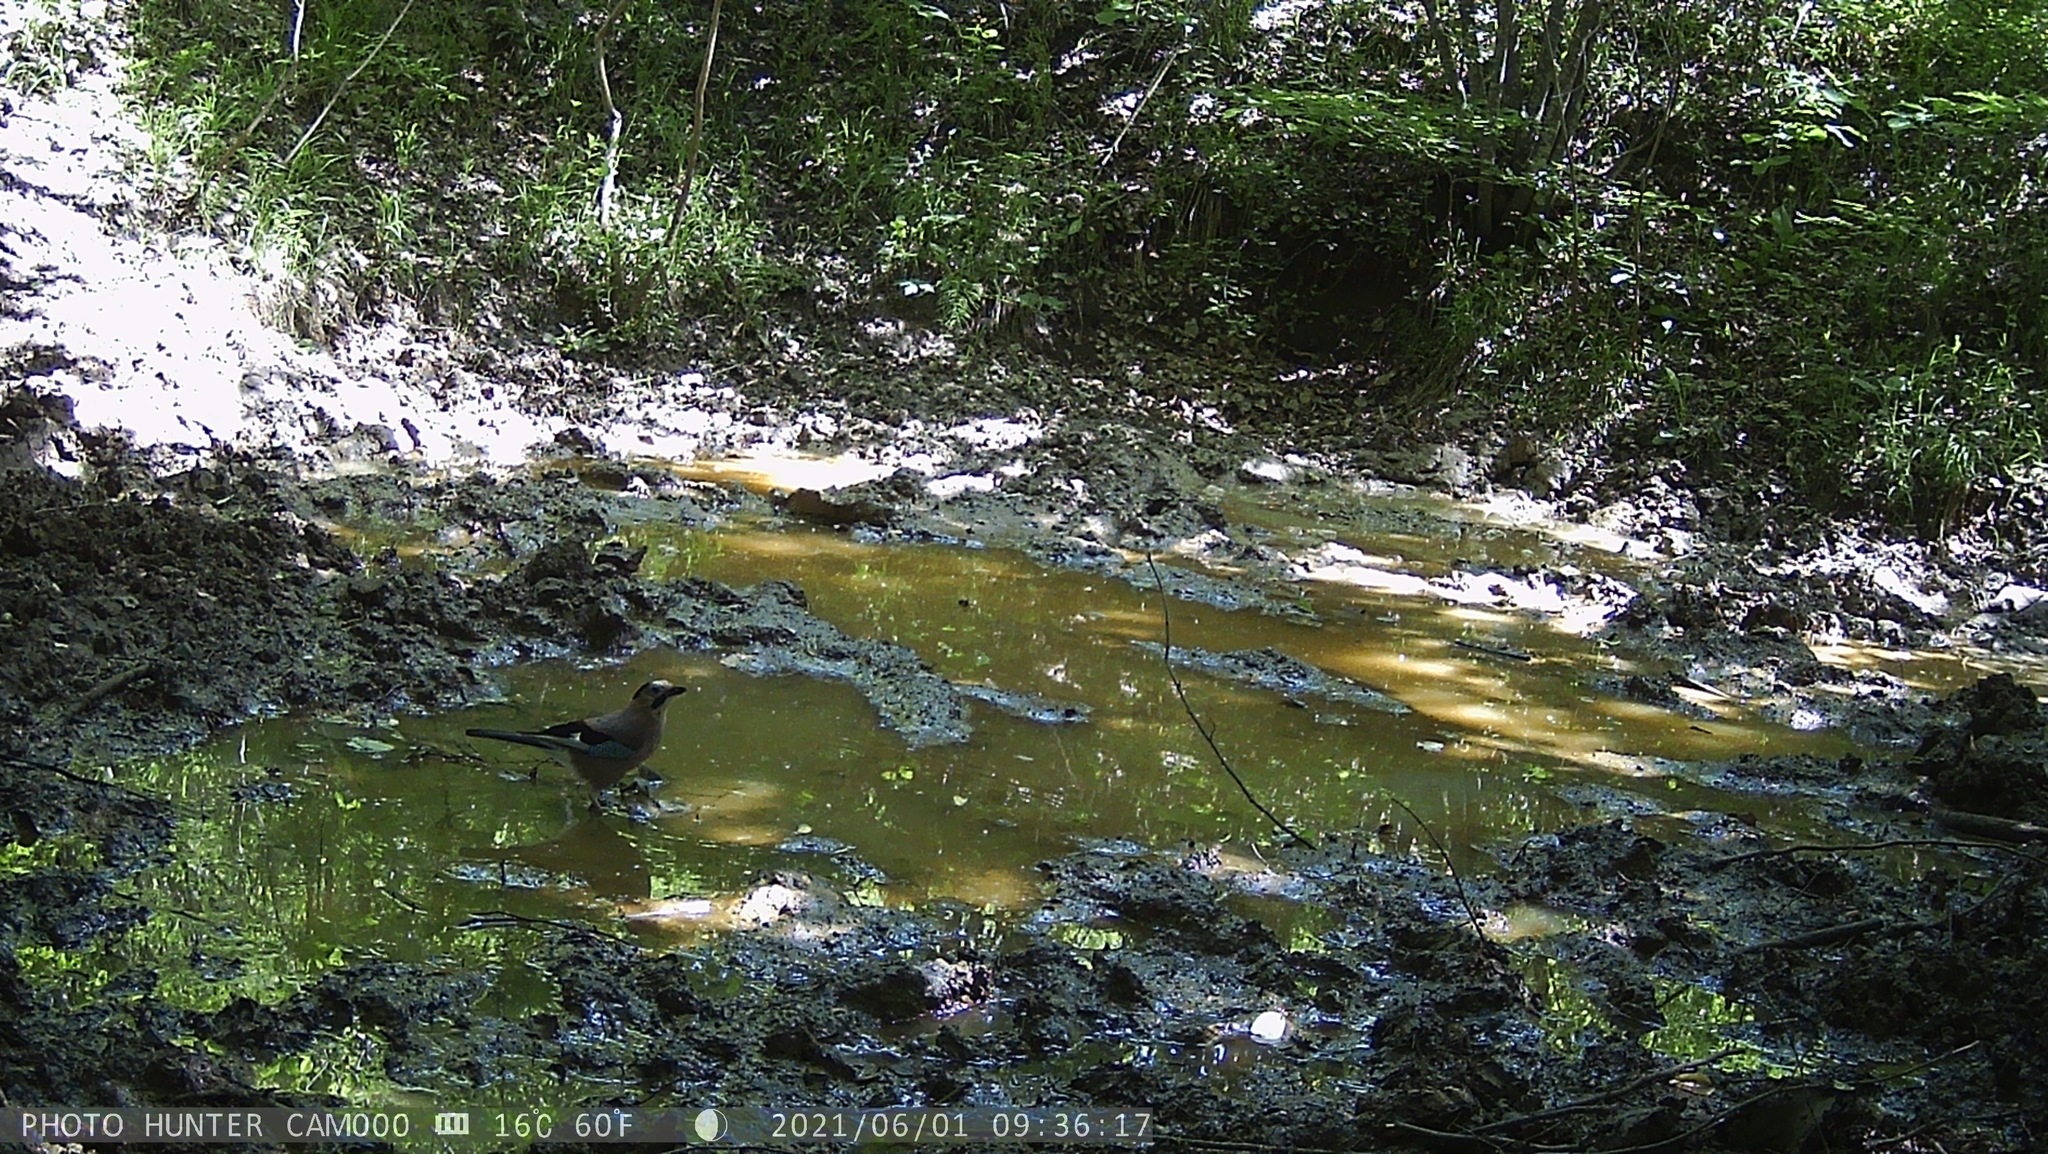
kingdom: Animalia
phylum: Chordata
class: Aves
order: Passeriformes
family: Corvidae
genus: Garrulus
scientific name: Garrulus glandarius
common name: Eurasian jay
